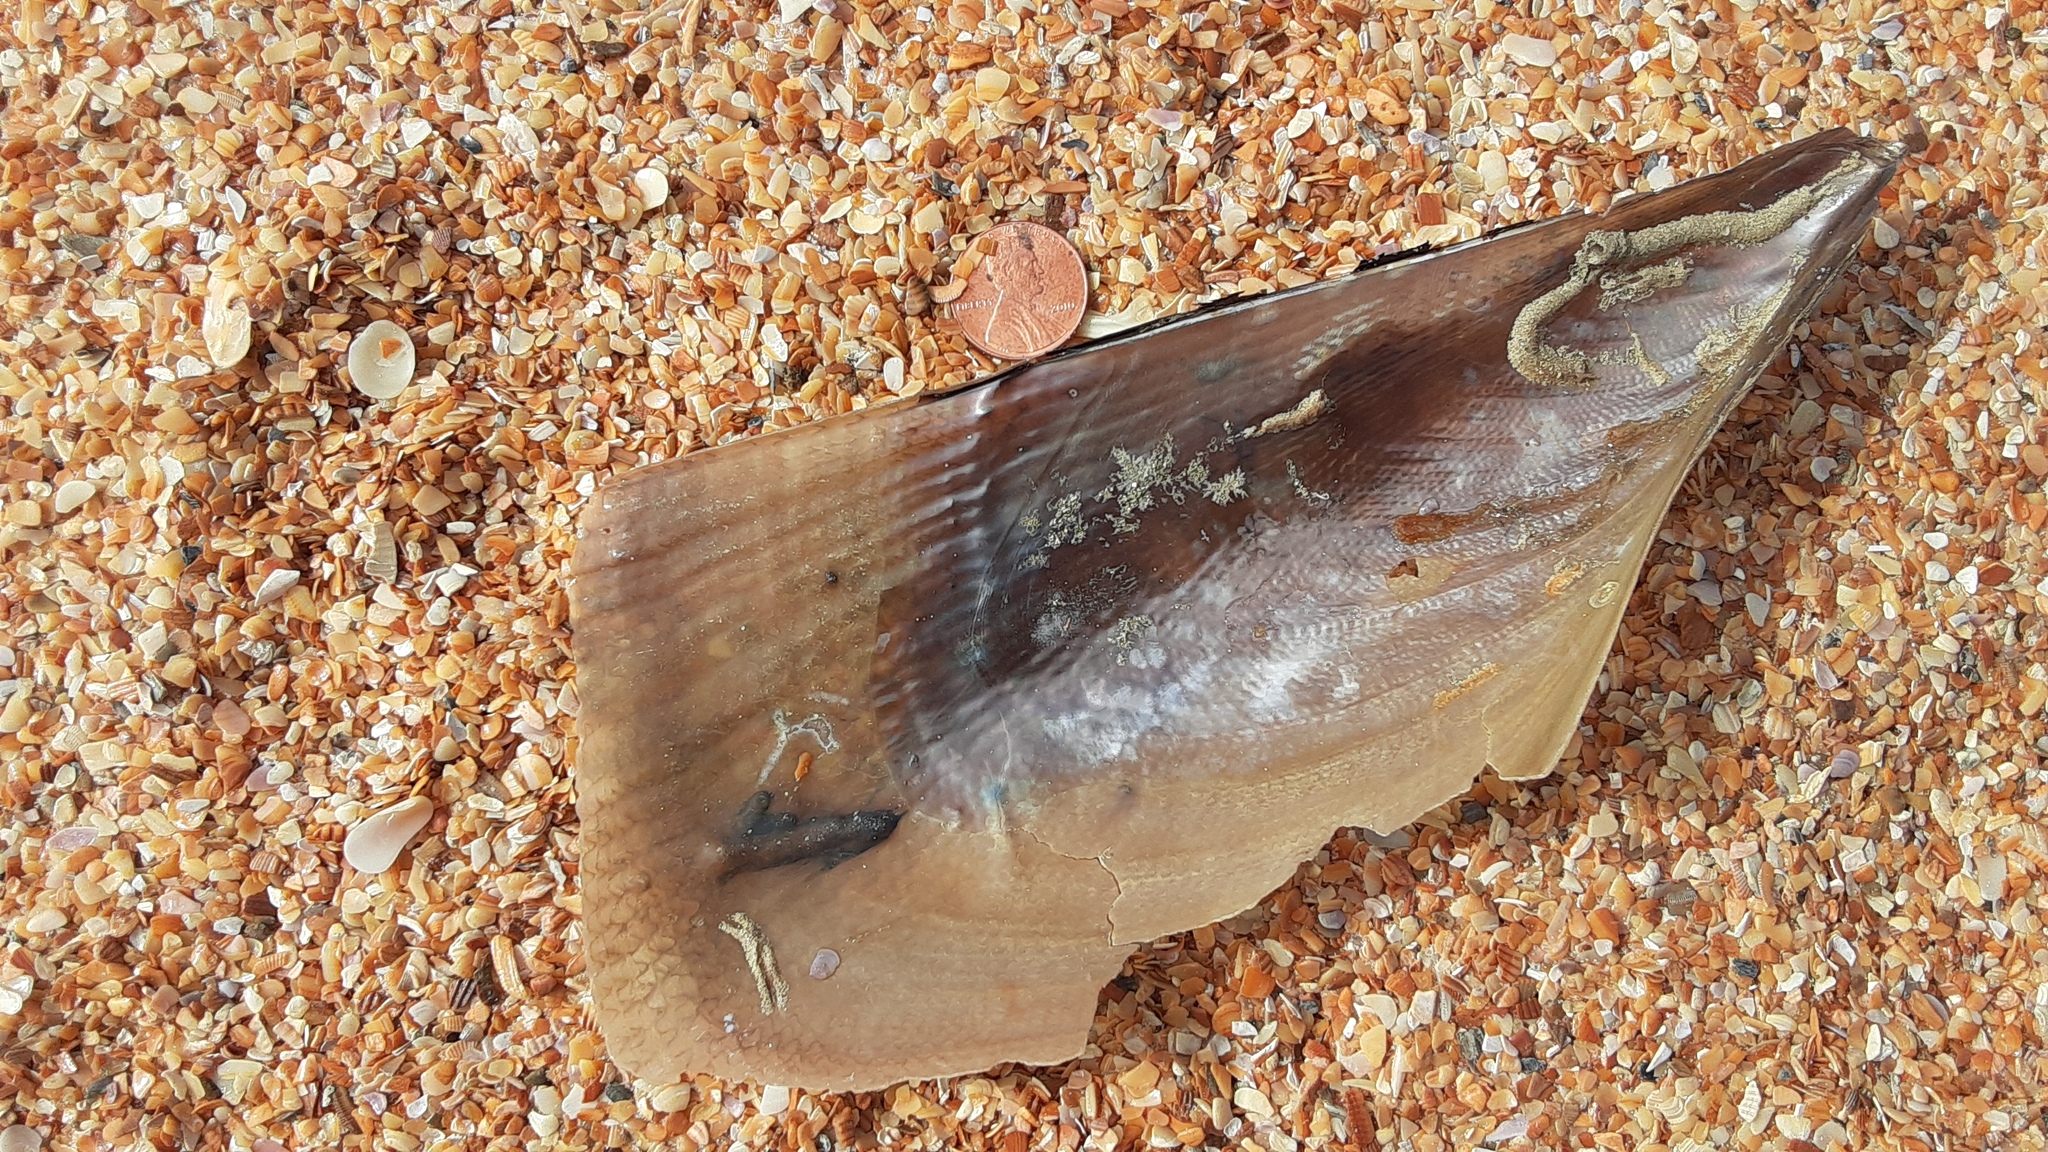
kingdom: Animalia
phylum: Mollusca
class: Bivalvia
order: Ostreida
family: Pinnidae
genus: Atrina
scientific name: Atrina serrata
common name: Saw-toothed penshell
